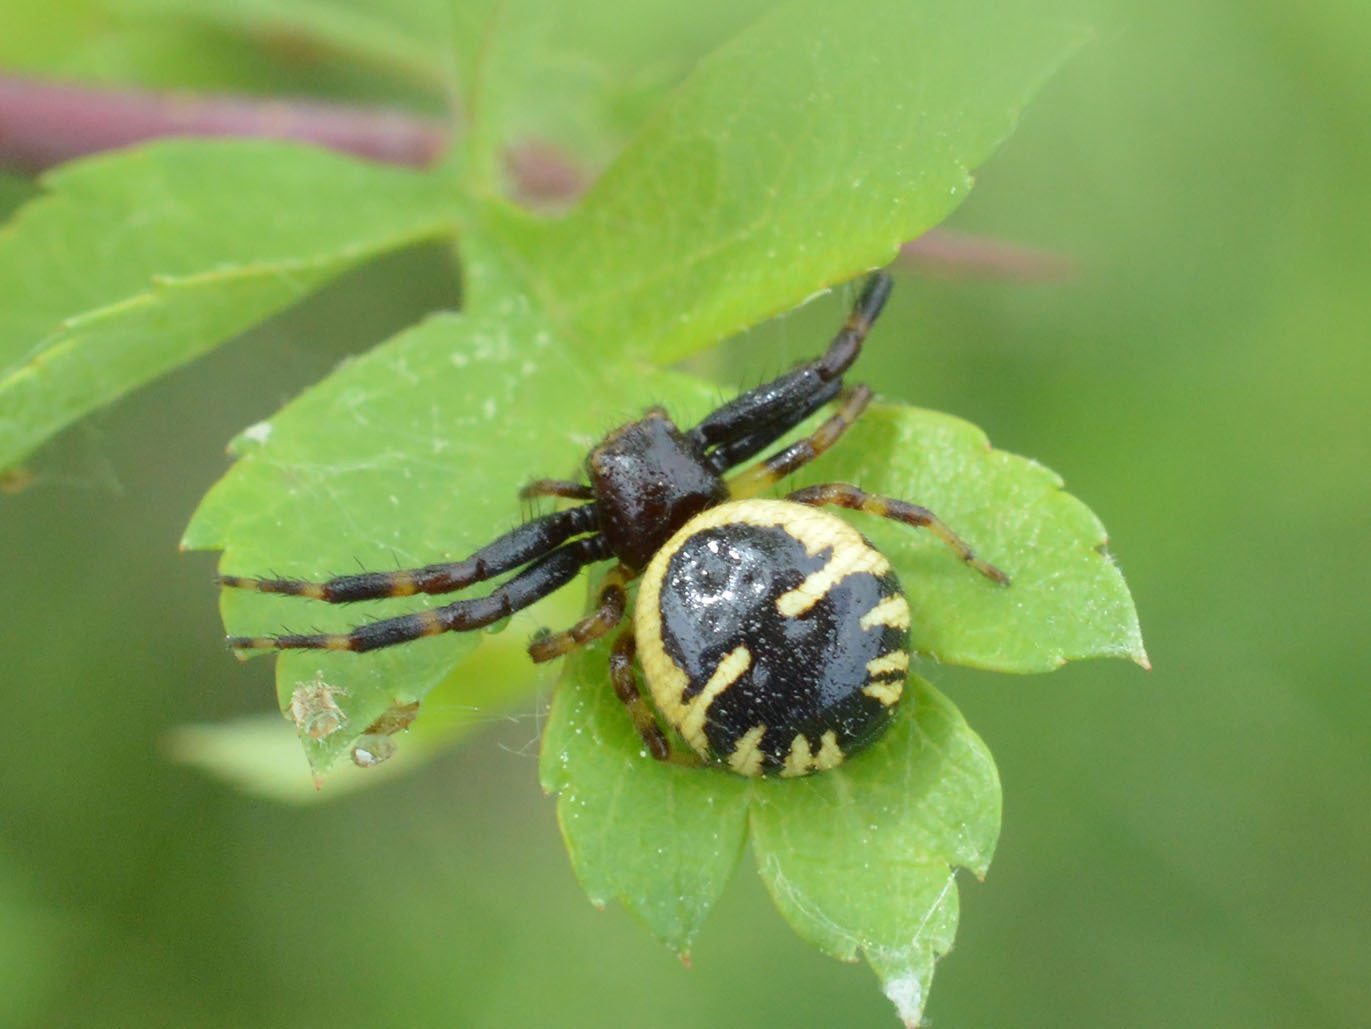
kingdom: Animalia
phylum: Arthropoda
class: Arachnida
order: Araneae
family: Thomisidae
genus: Synema
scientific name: Synema globosum
